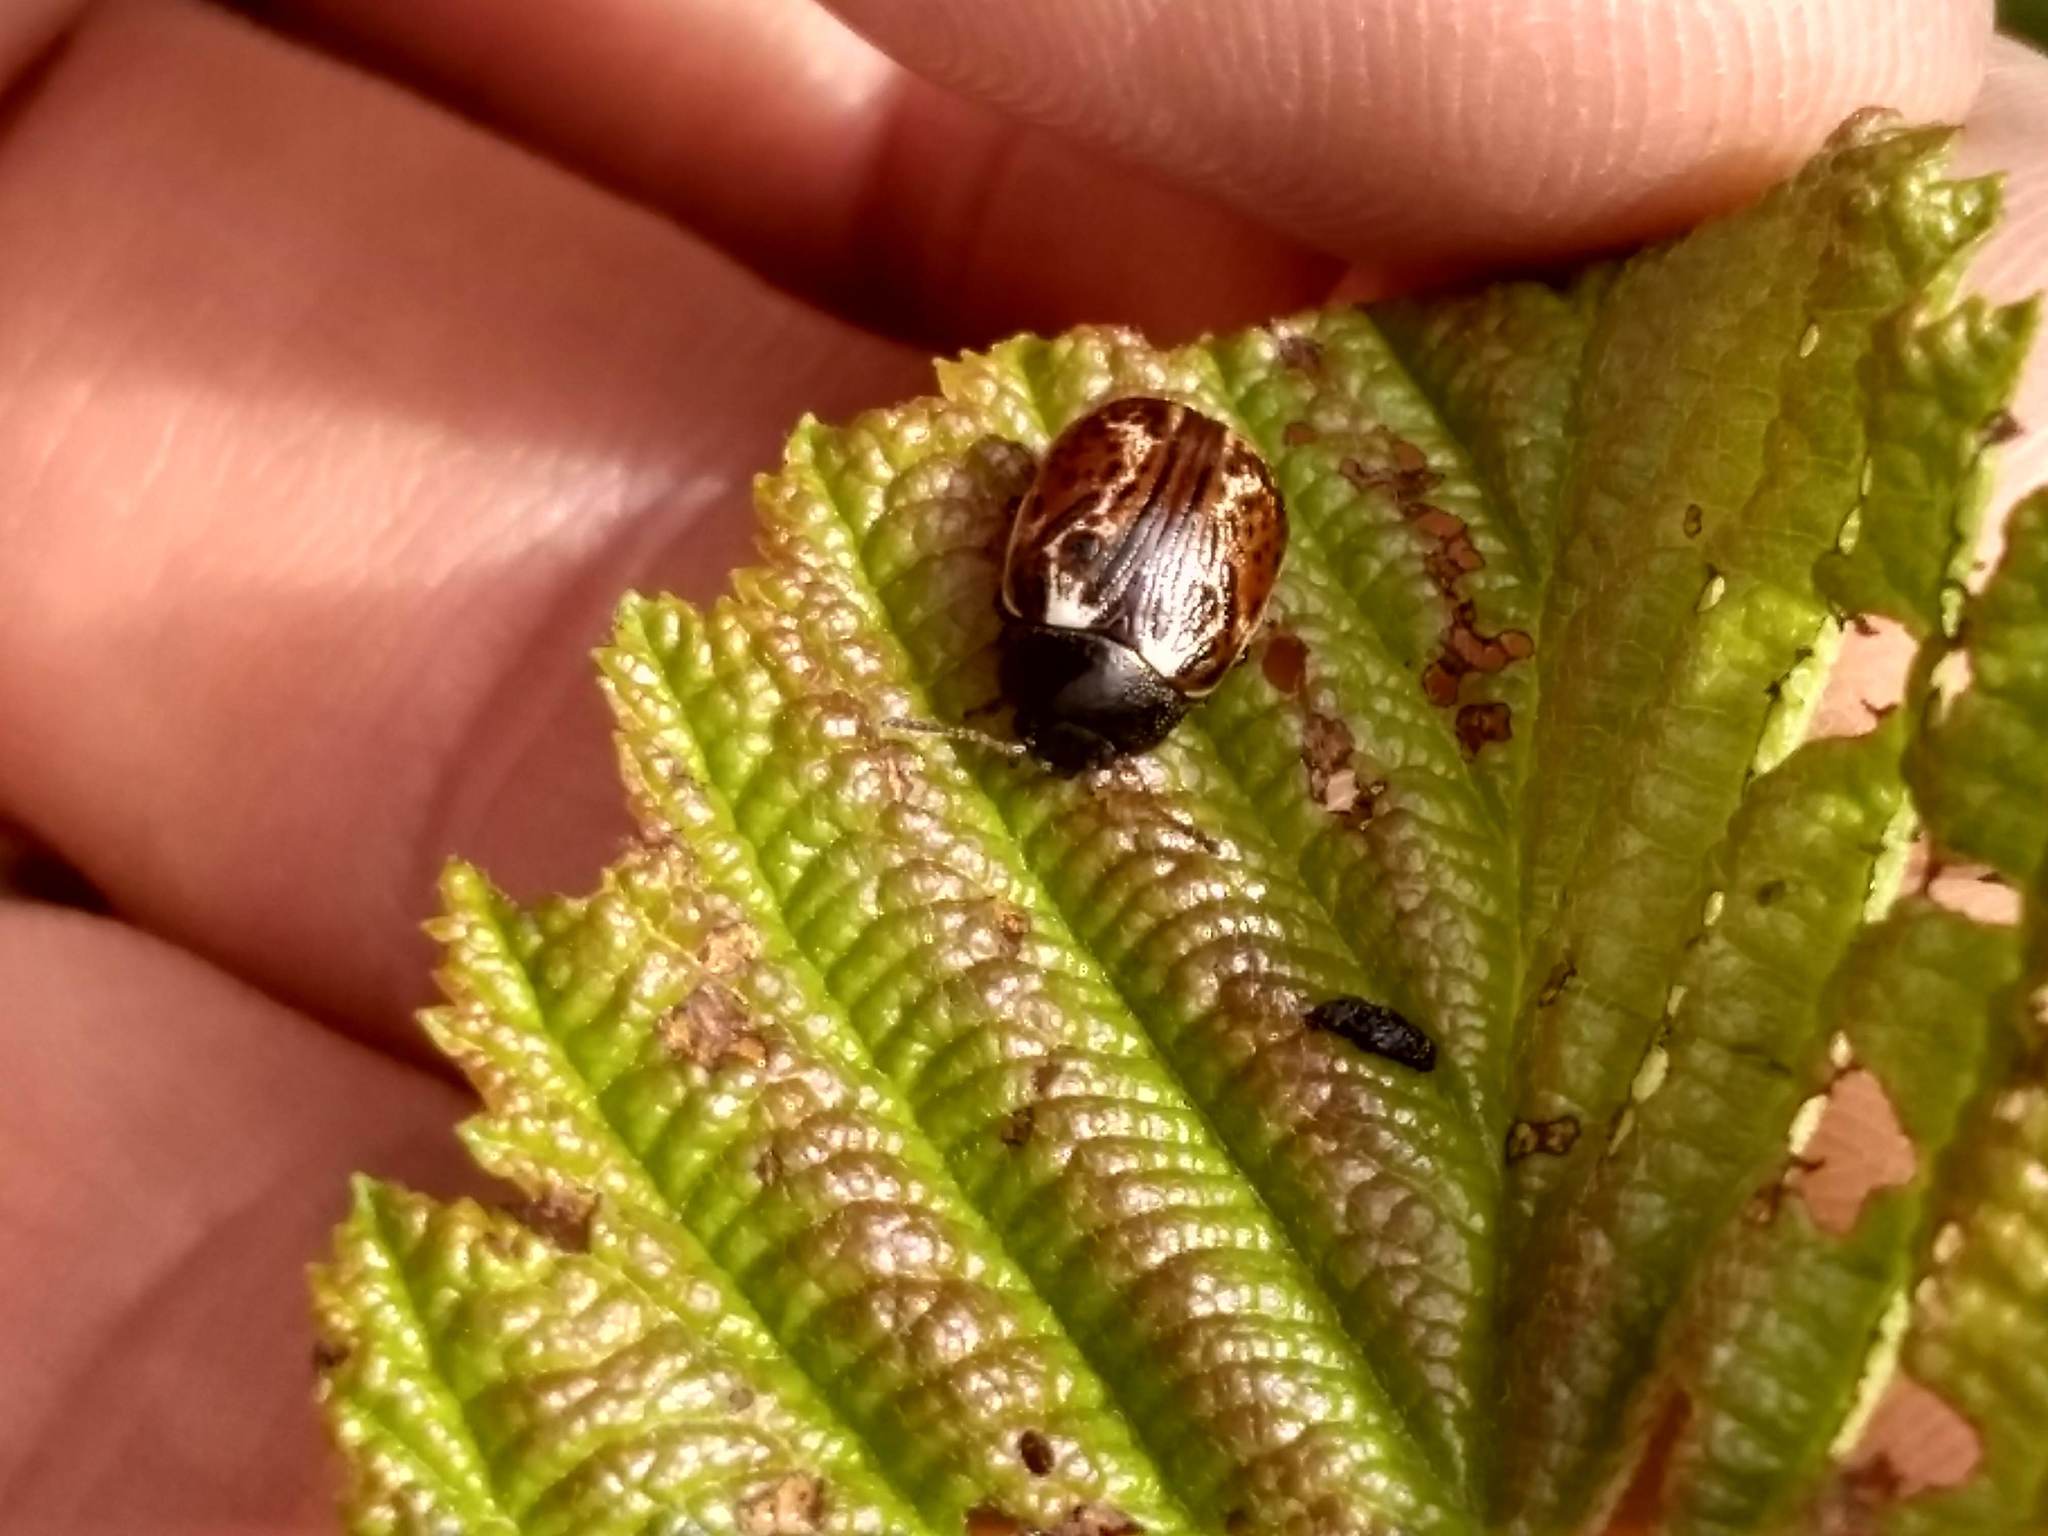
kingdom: Animalia
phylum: Arthropoda
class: Insecta
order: Coleoptera
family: Chrysomelidae
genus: Calligrapha
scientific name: Calligrapha alni
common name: Russet alder leaf beetle
